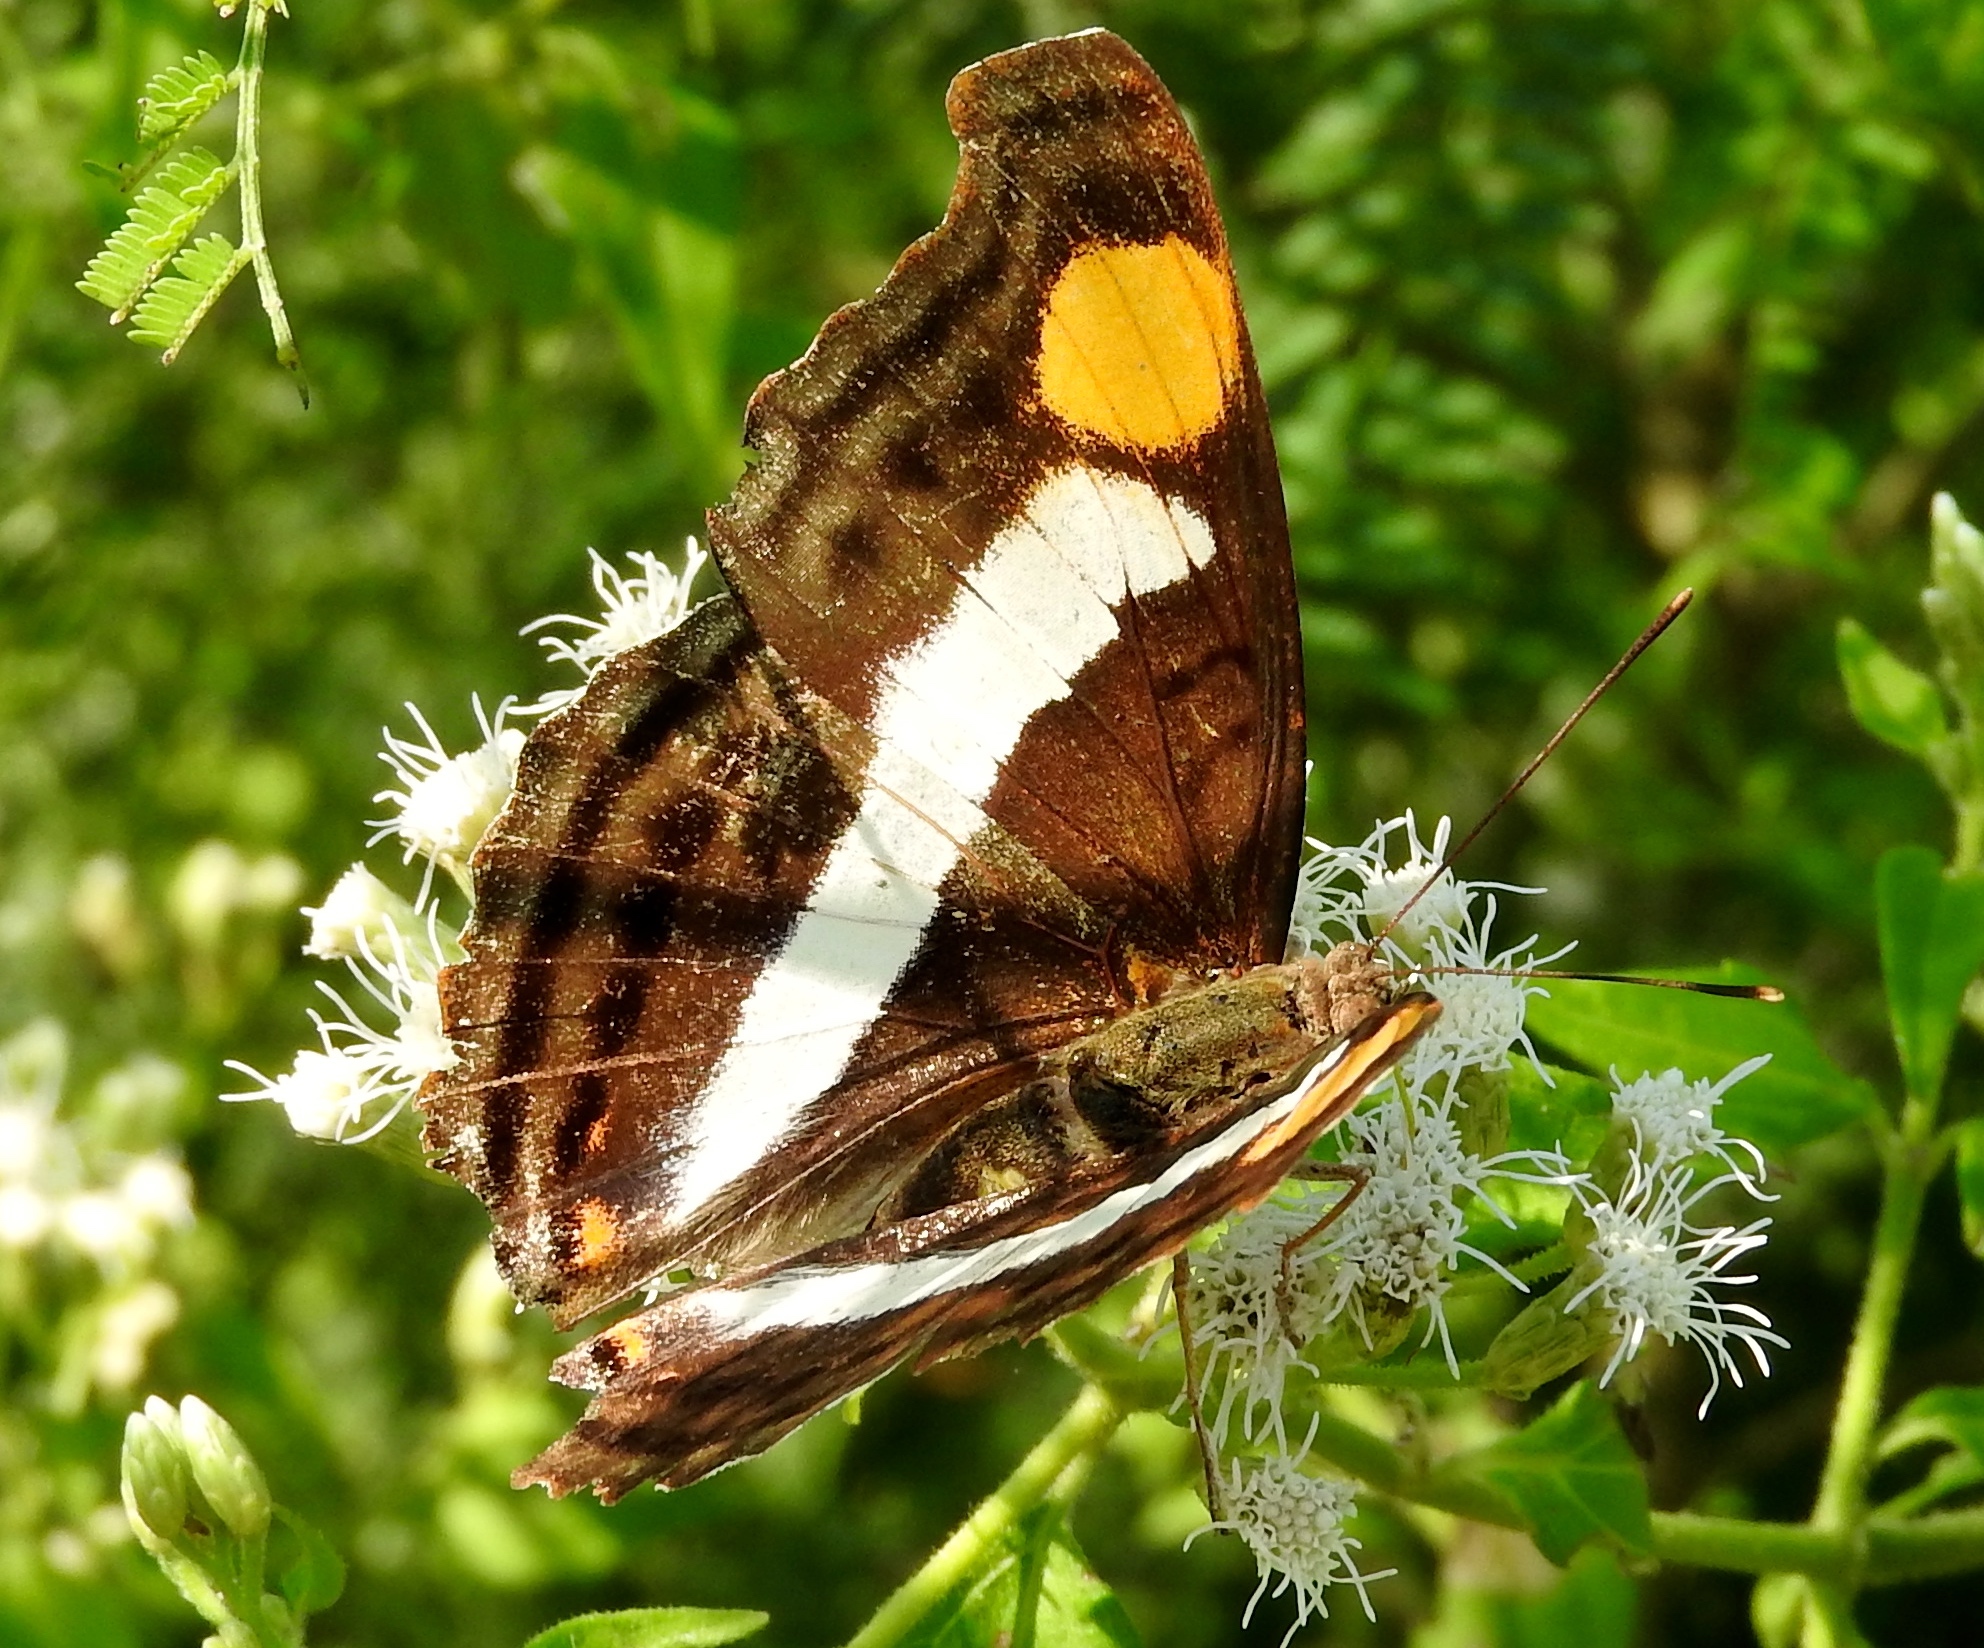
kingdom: Animalia
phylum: Arthropoda
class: Insecta
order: Lepidoptera
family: Nymphalidae
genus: Doxocopa
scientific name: Doxocopa laure
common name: Silver emperor
